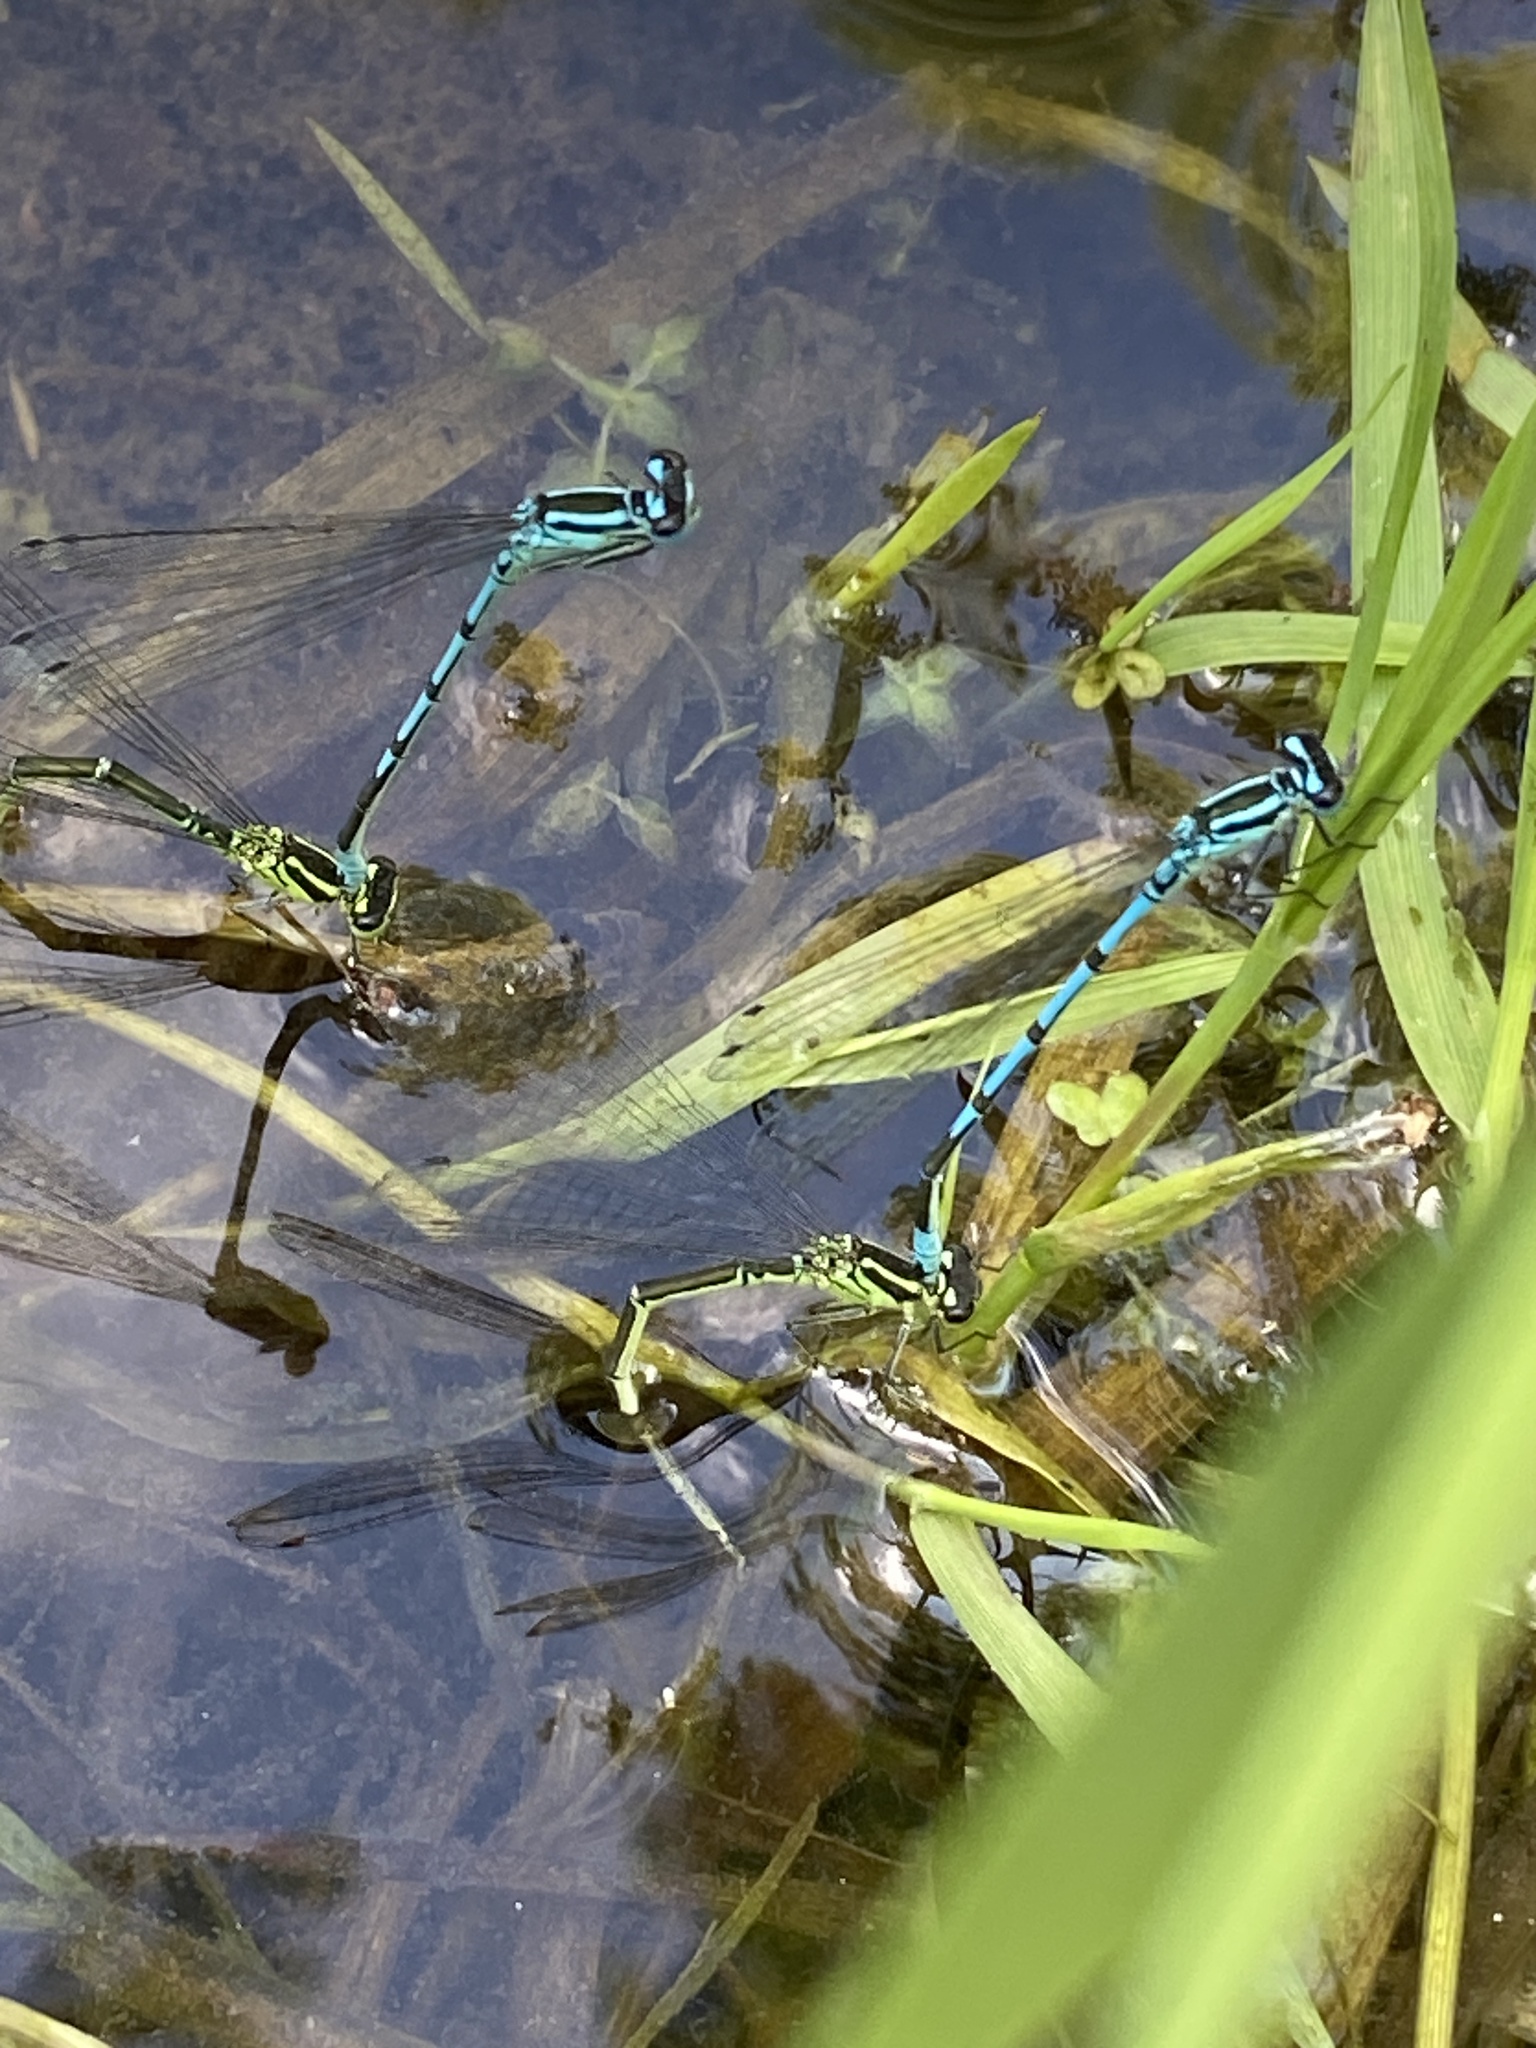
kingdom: Animalia
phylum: Arthropoda
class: Insecta
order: Odonata
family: Coenagrionidae
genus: Coenagrion
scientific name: Coenagrion puella
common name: Azure damselfly
